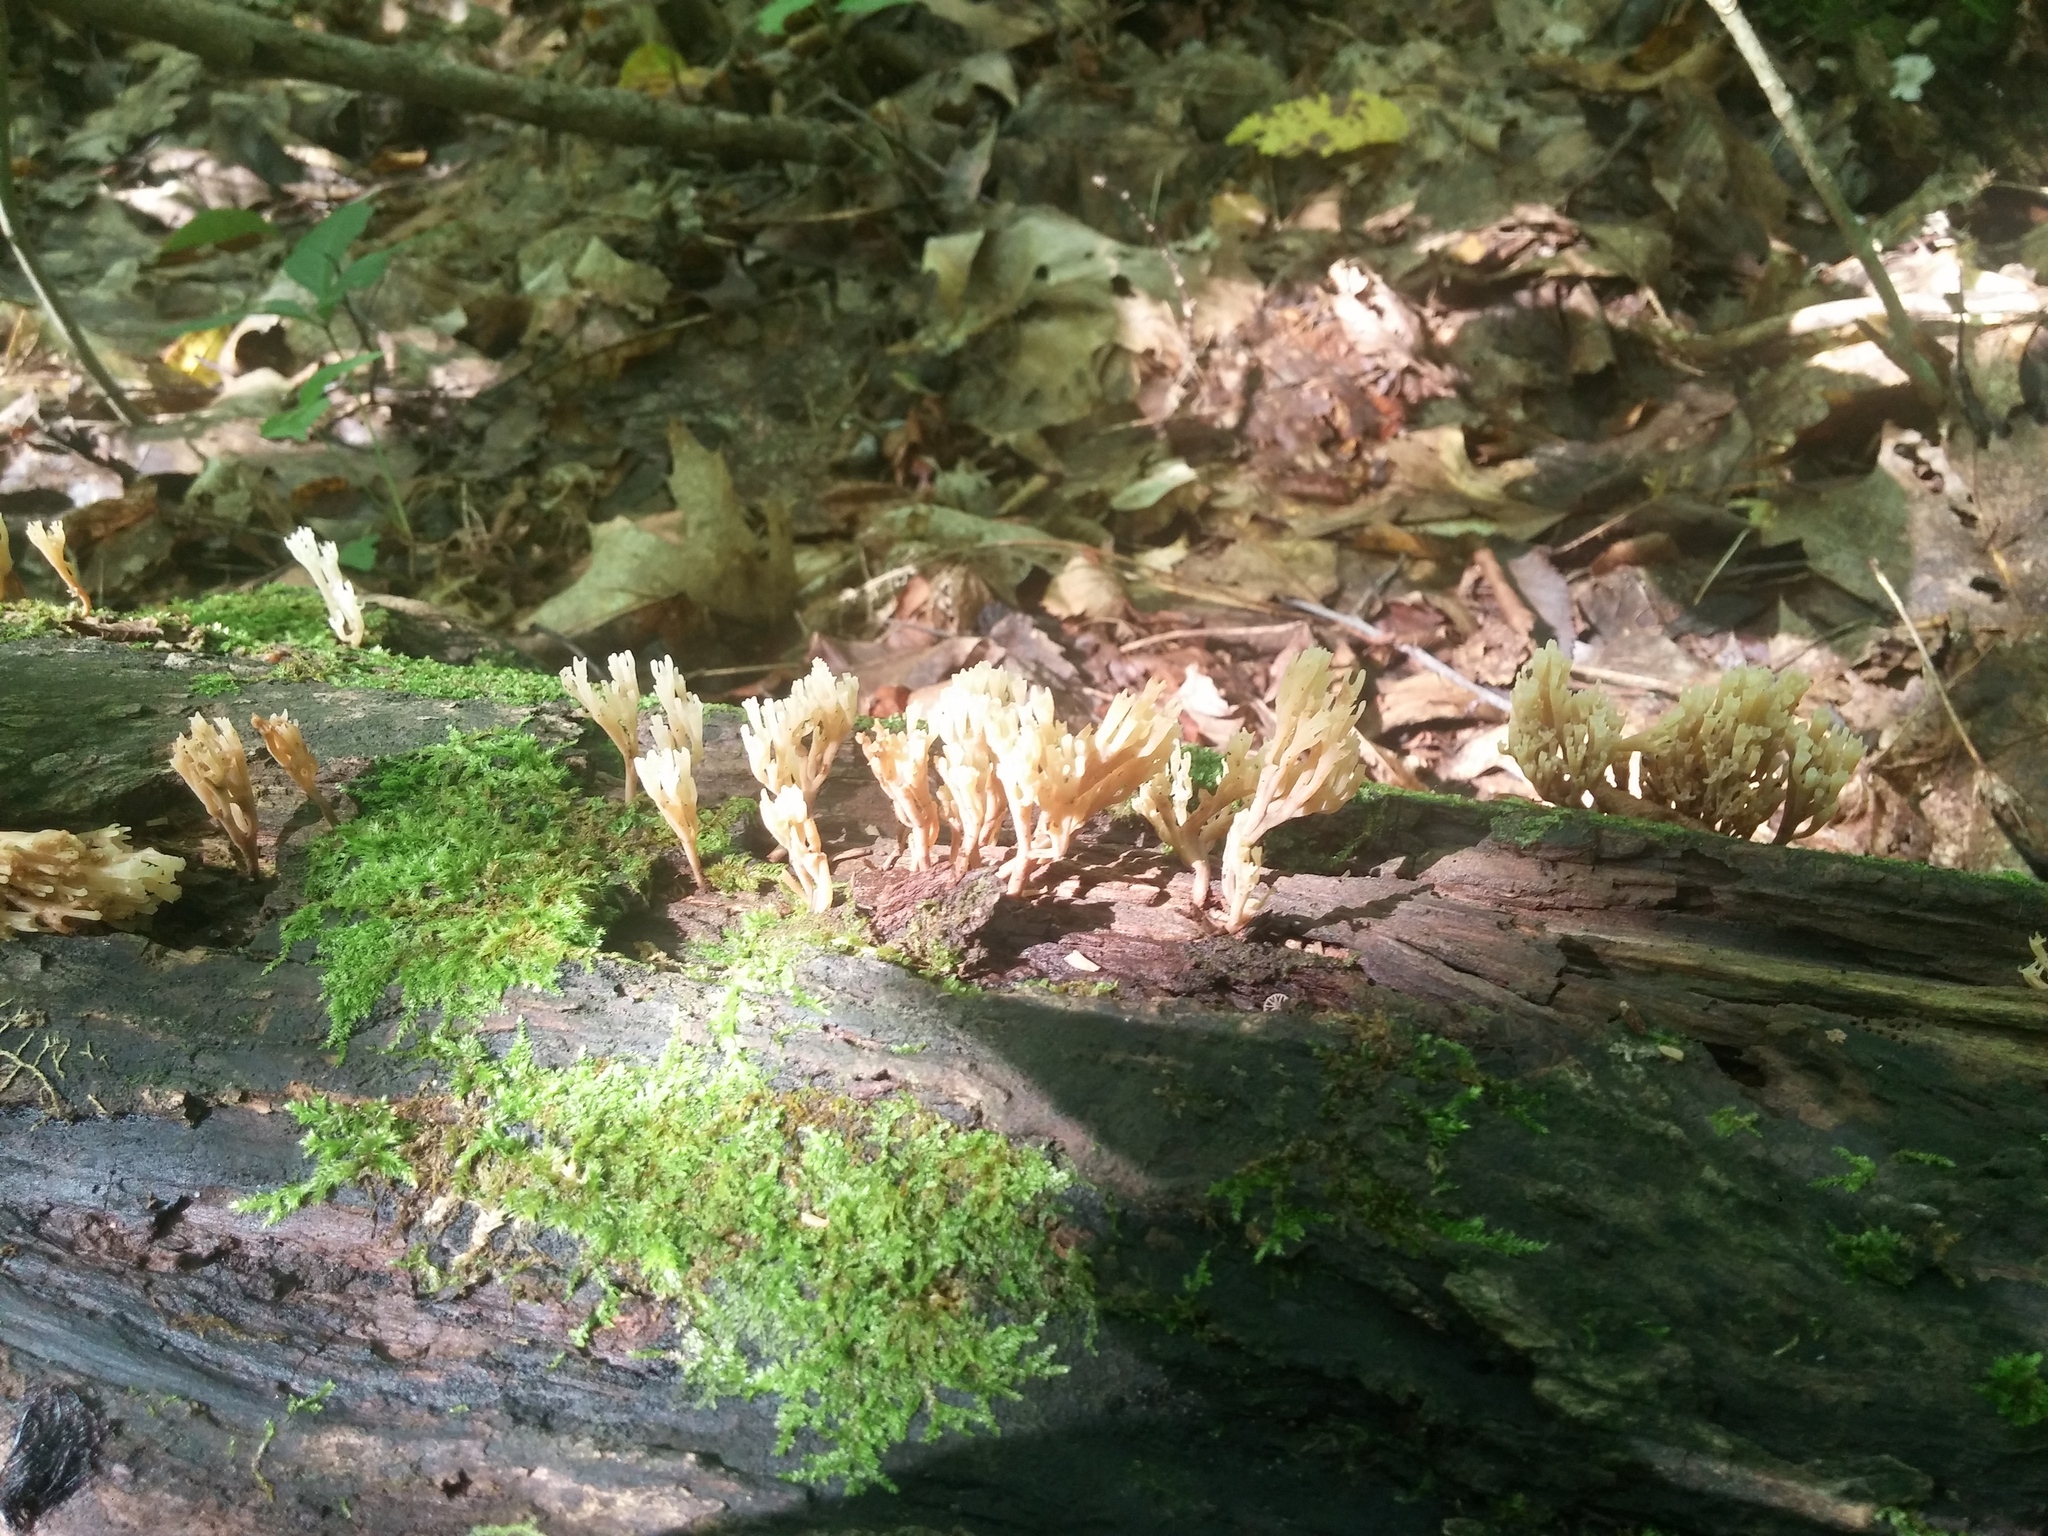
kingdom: Fungi
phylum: Basidiomycota
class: Agaricomycetes
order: Russulales
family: Auriscalpiaceae
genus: Artomyces
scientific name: Artomyces pyxidatus
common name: Crown-tipped coral fungus
